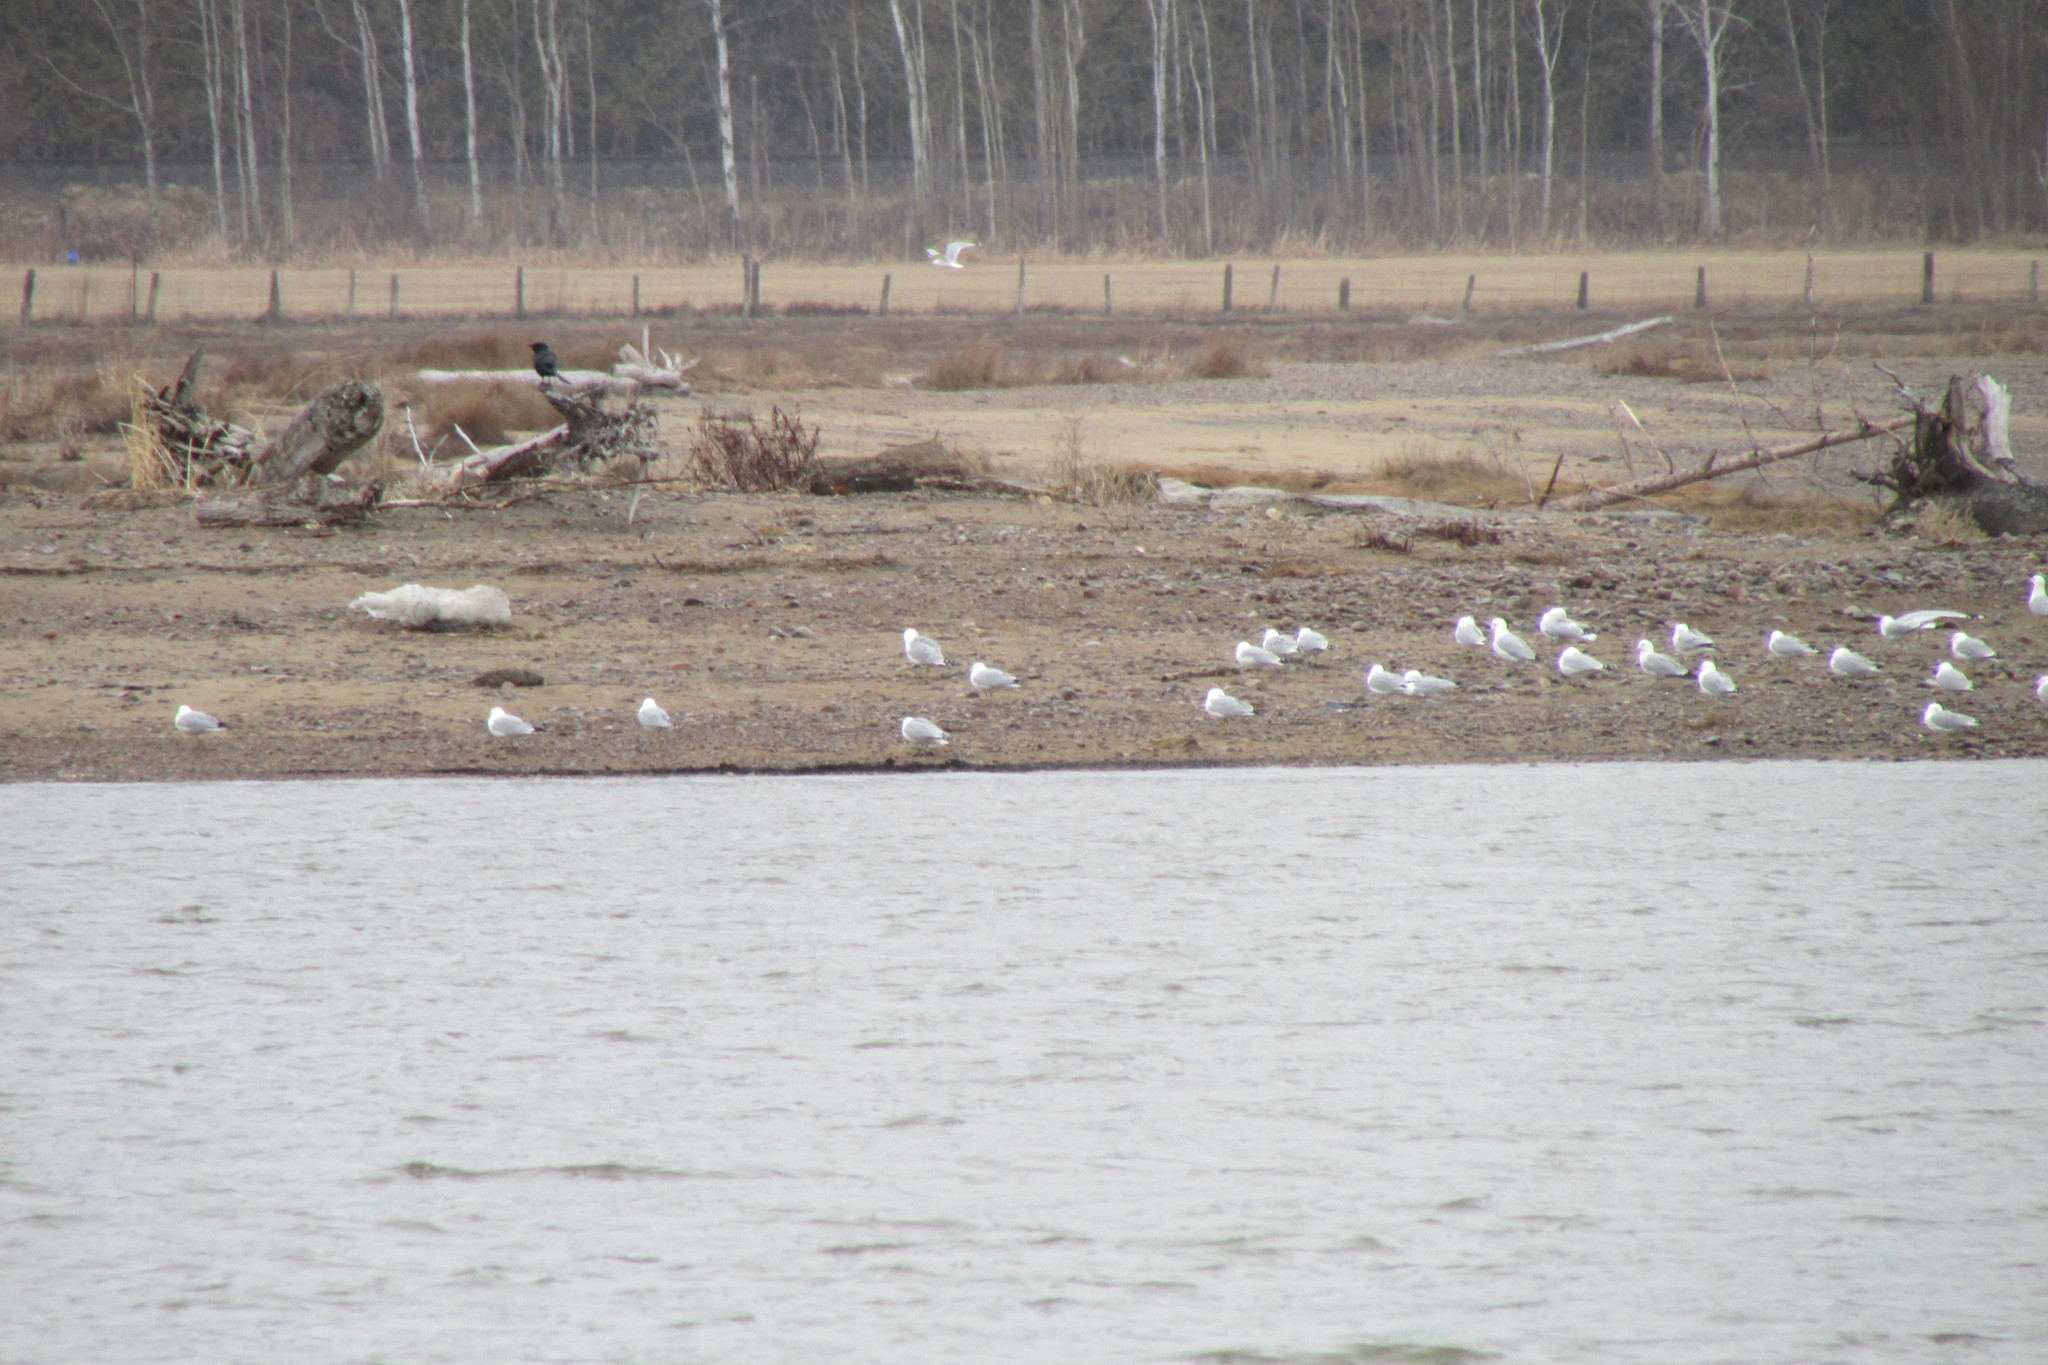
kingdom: Animalia
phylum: Chordata
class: Aves
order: Charadriiformes
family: Laridae
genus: Larus
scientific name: Larus delawarensis
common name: Ring-billed gull
